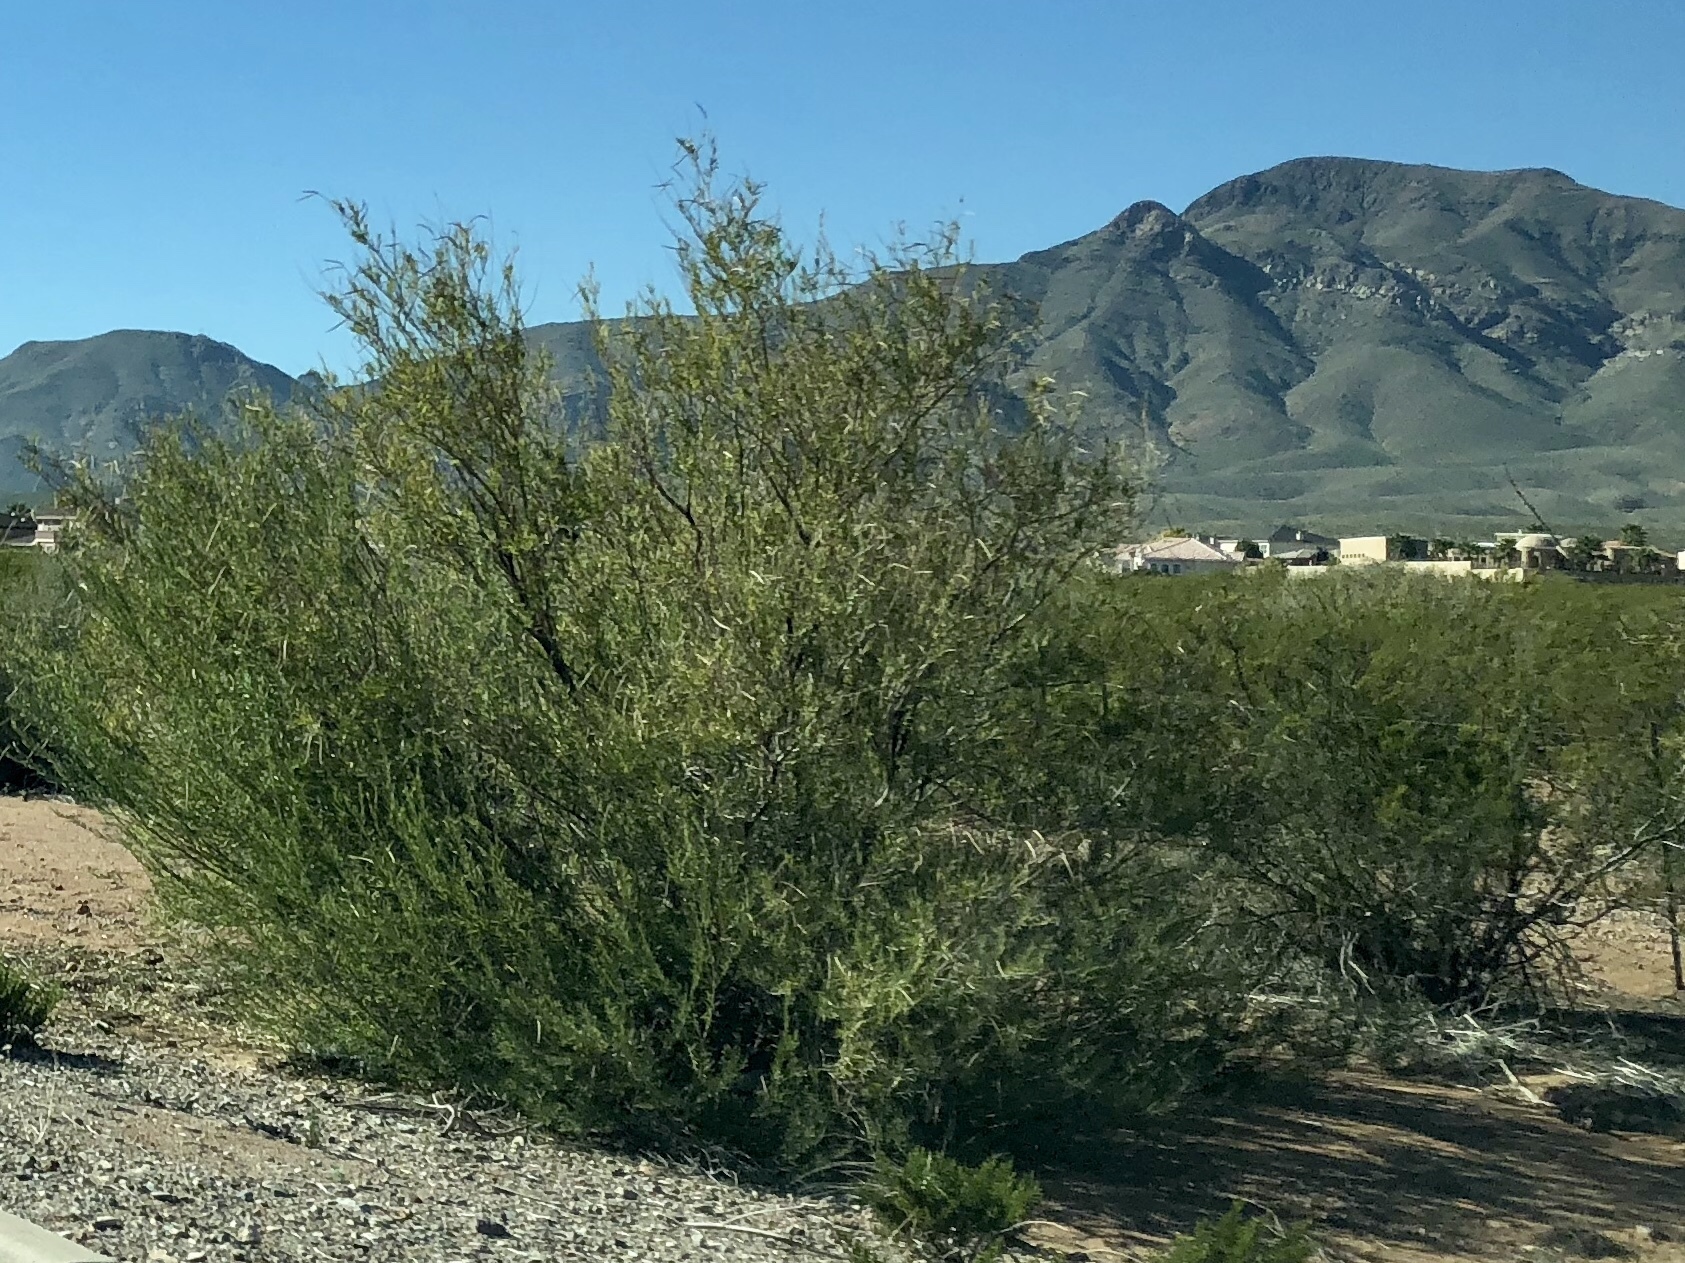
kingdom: Plantae
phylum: Tracheophyta
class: Magnoliopsida
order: Lamiales
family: Bignoniaceae
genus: Chilopsis
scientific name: Chilopsis linearis
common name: Desert-willow
